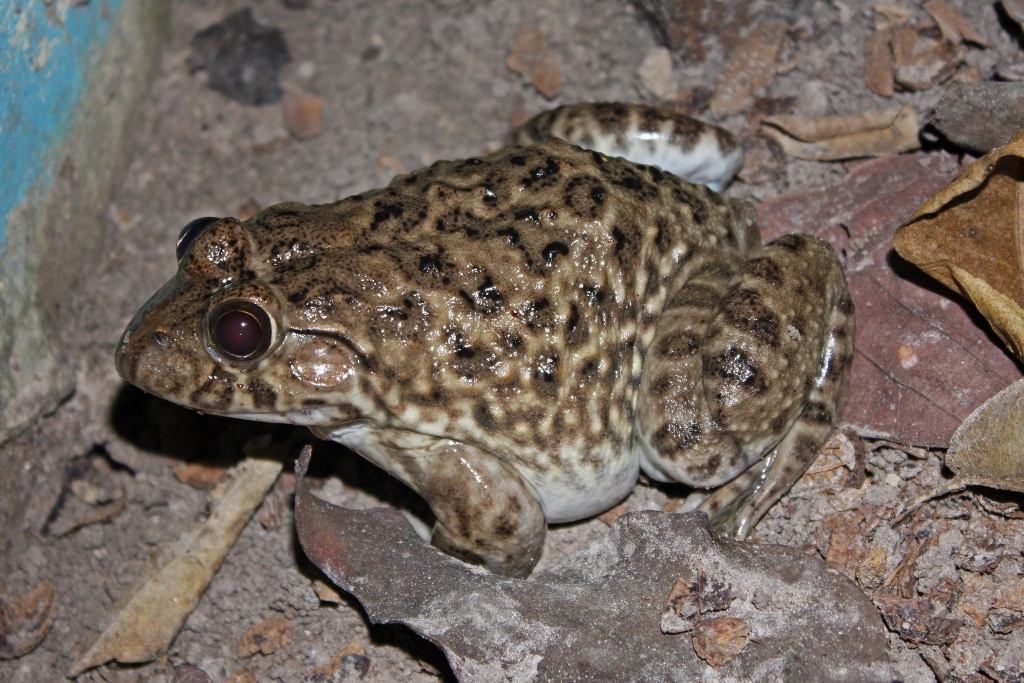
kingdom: Animalia
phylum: Chordata
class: Amphibia
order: Anura
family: Dicroglossidae
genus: Hoplobatrachus
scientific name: Hoplobatrachus occipitalis
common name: Eastern groove-crowned bullfrog
